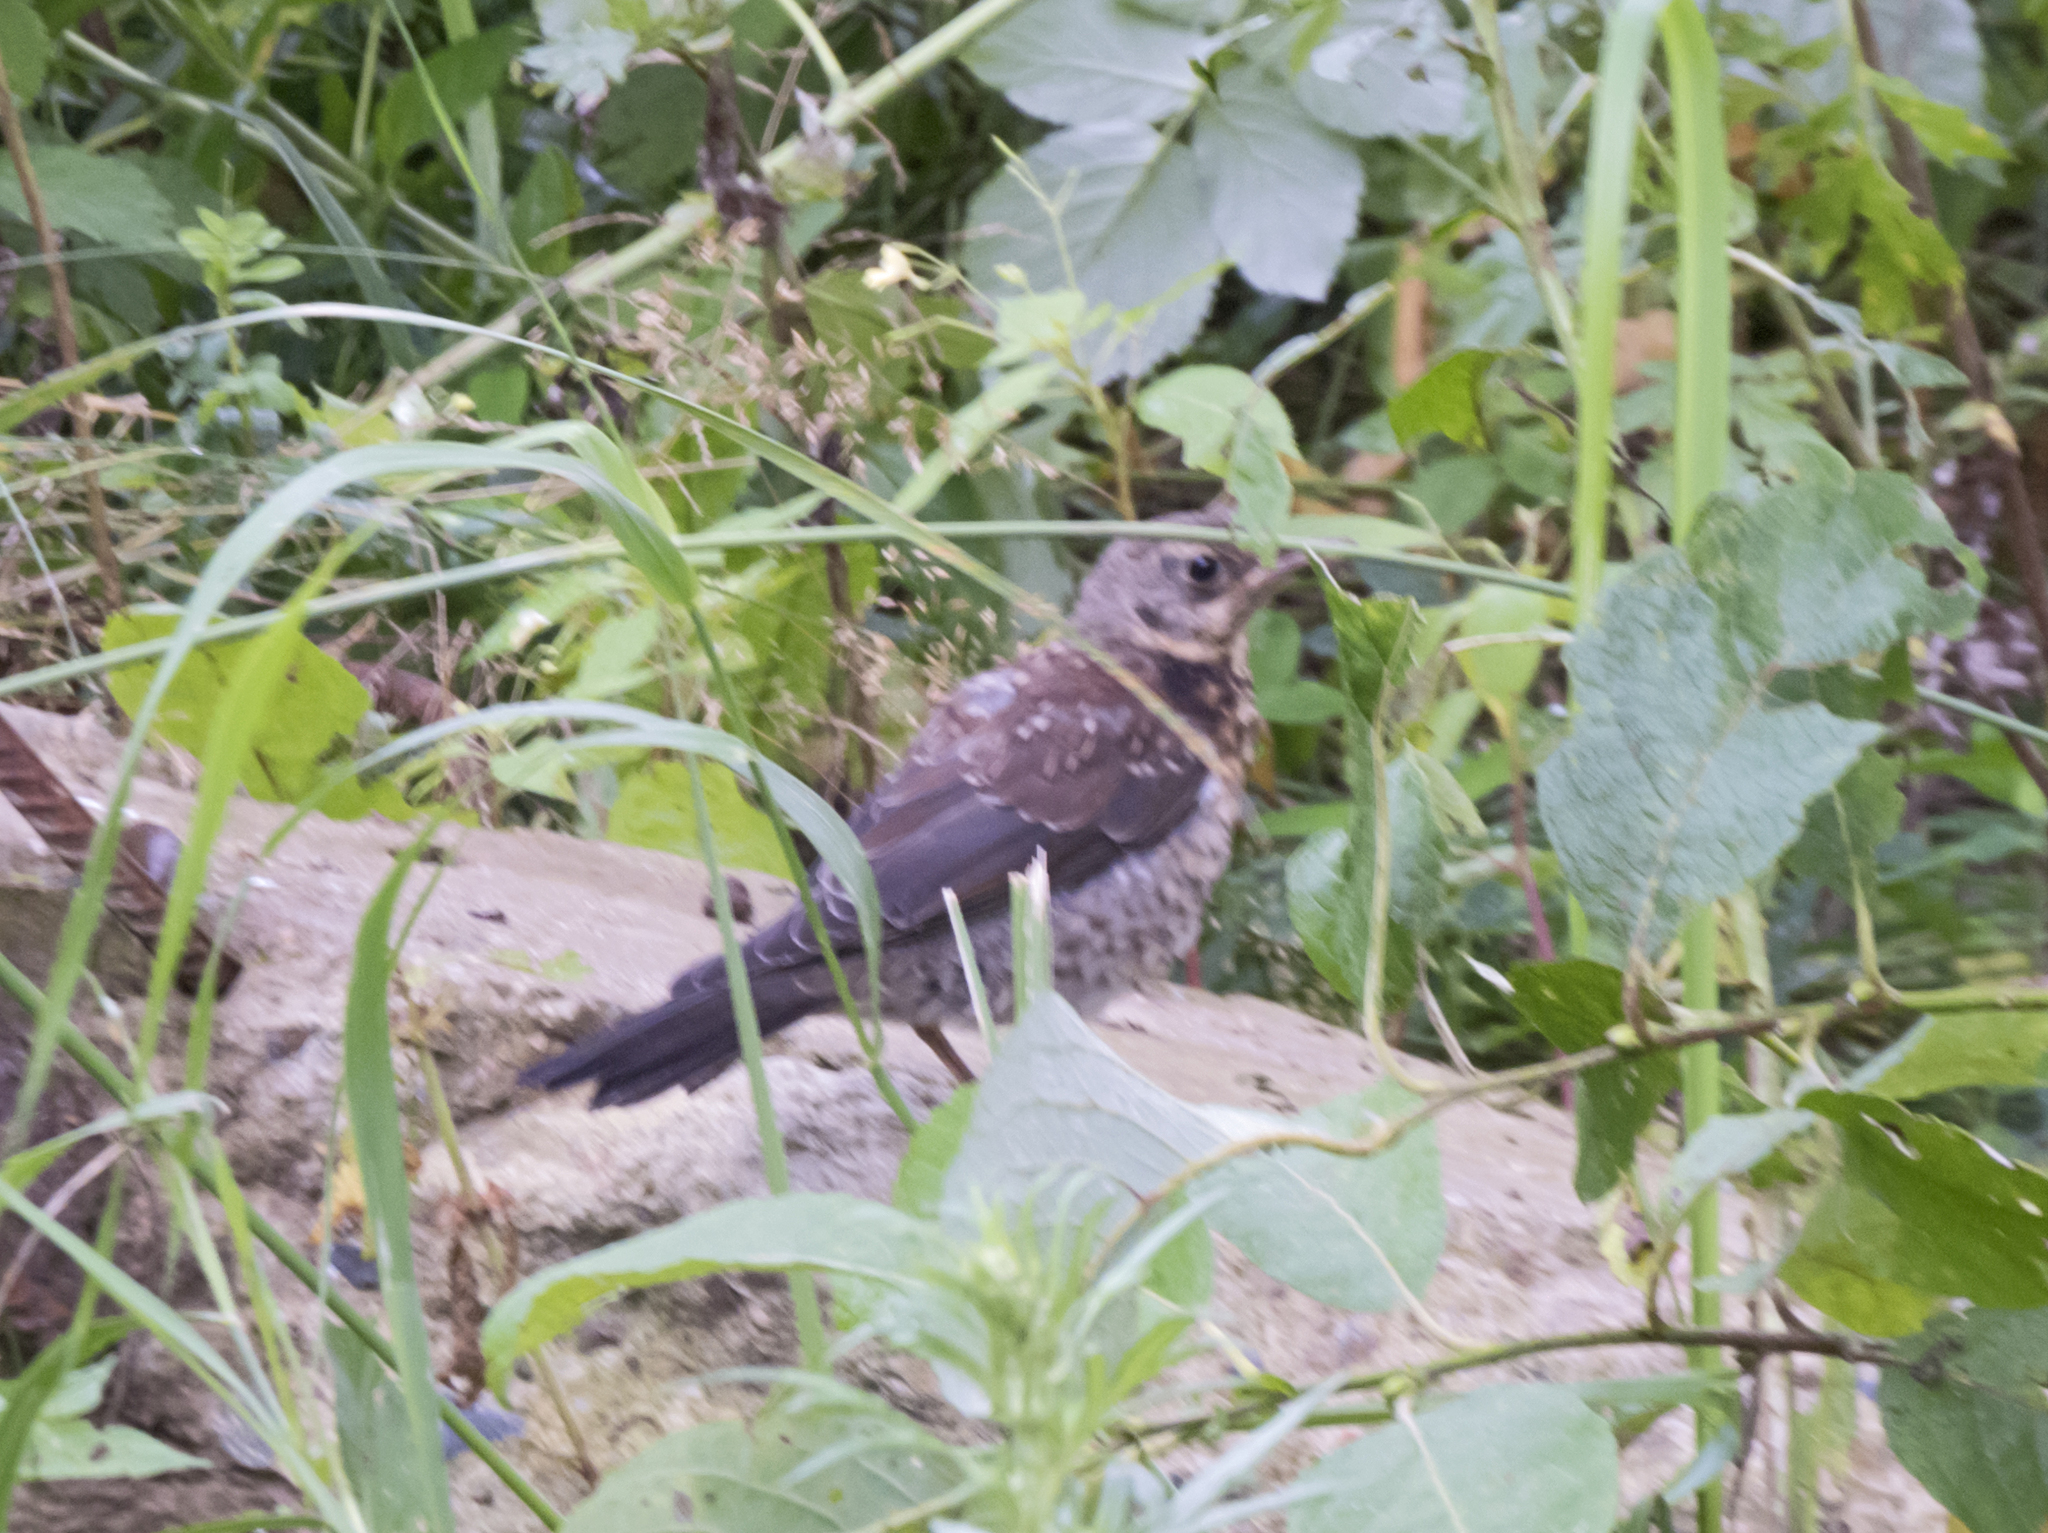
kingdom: Animalia
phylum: Chordata
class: Aves
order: Passeriformes
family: Turdidae
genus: Turdus
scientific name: Turdus pilaris
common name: Fieldfare
